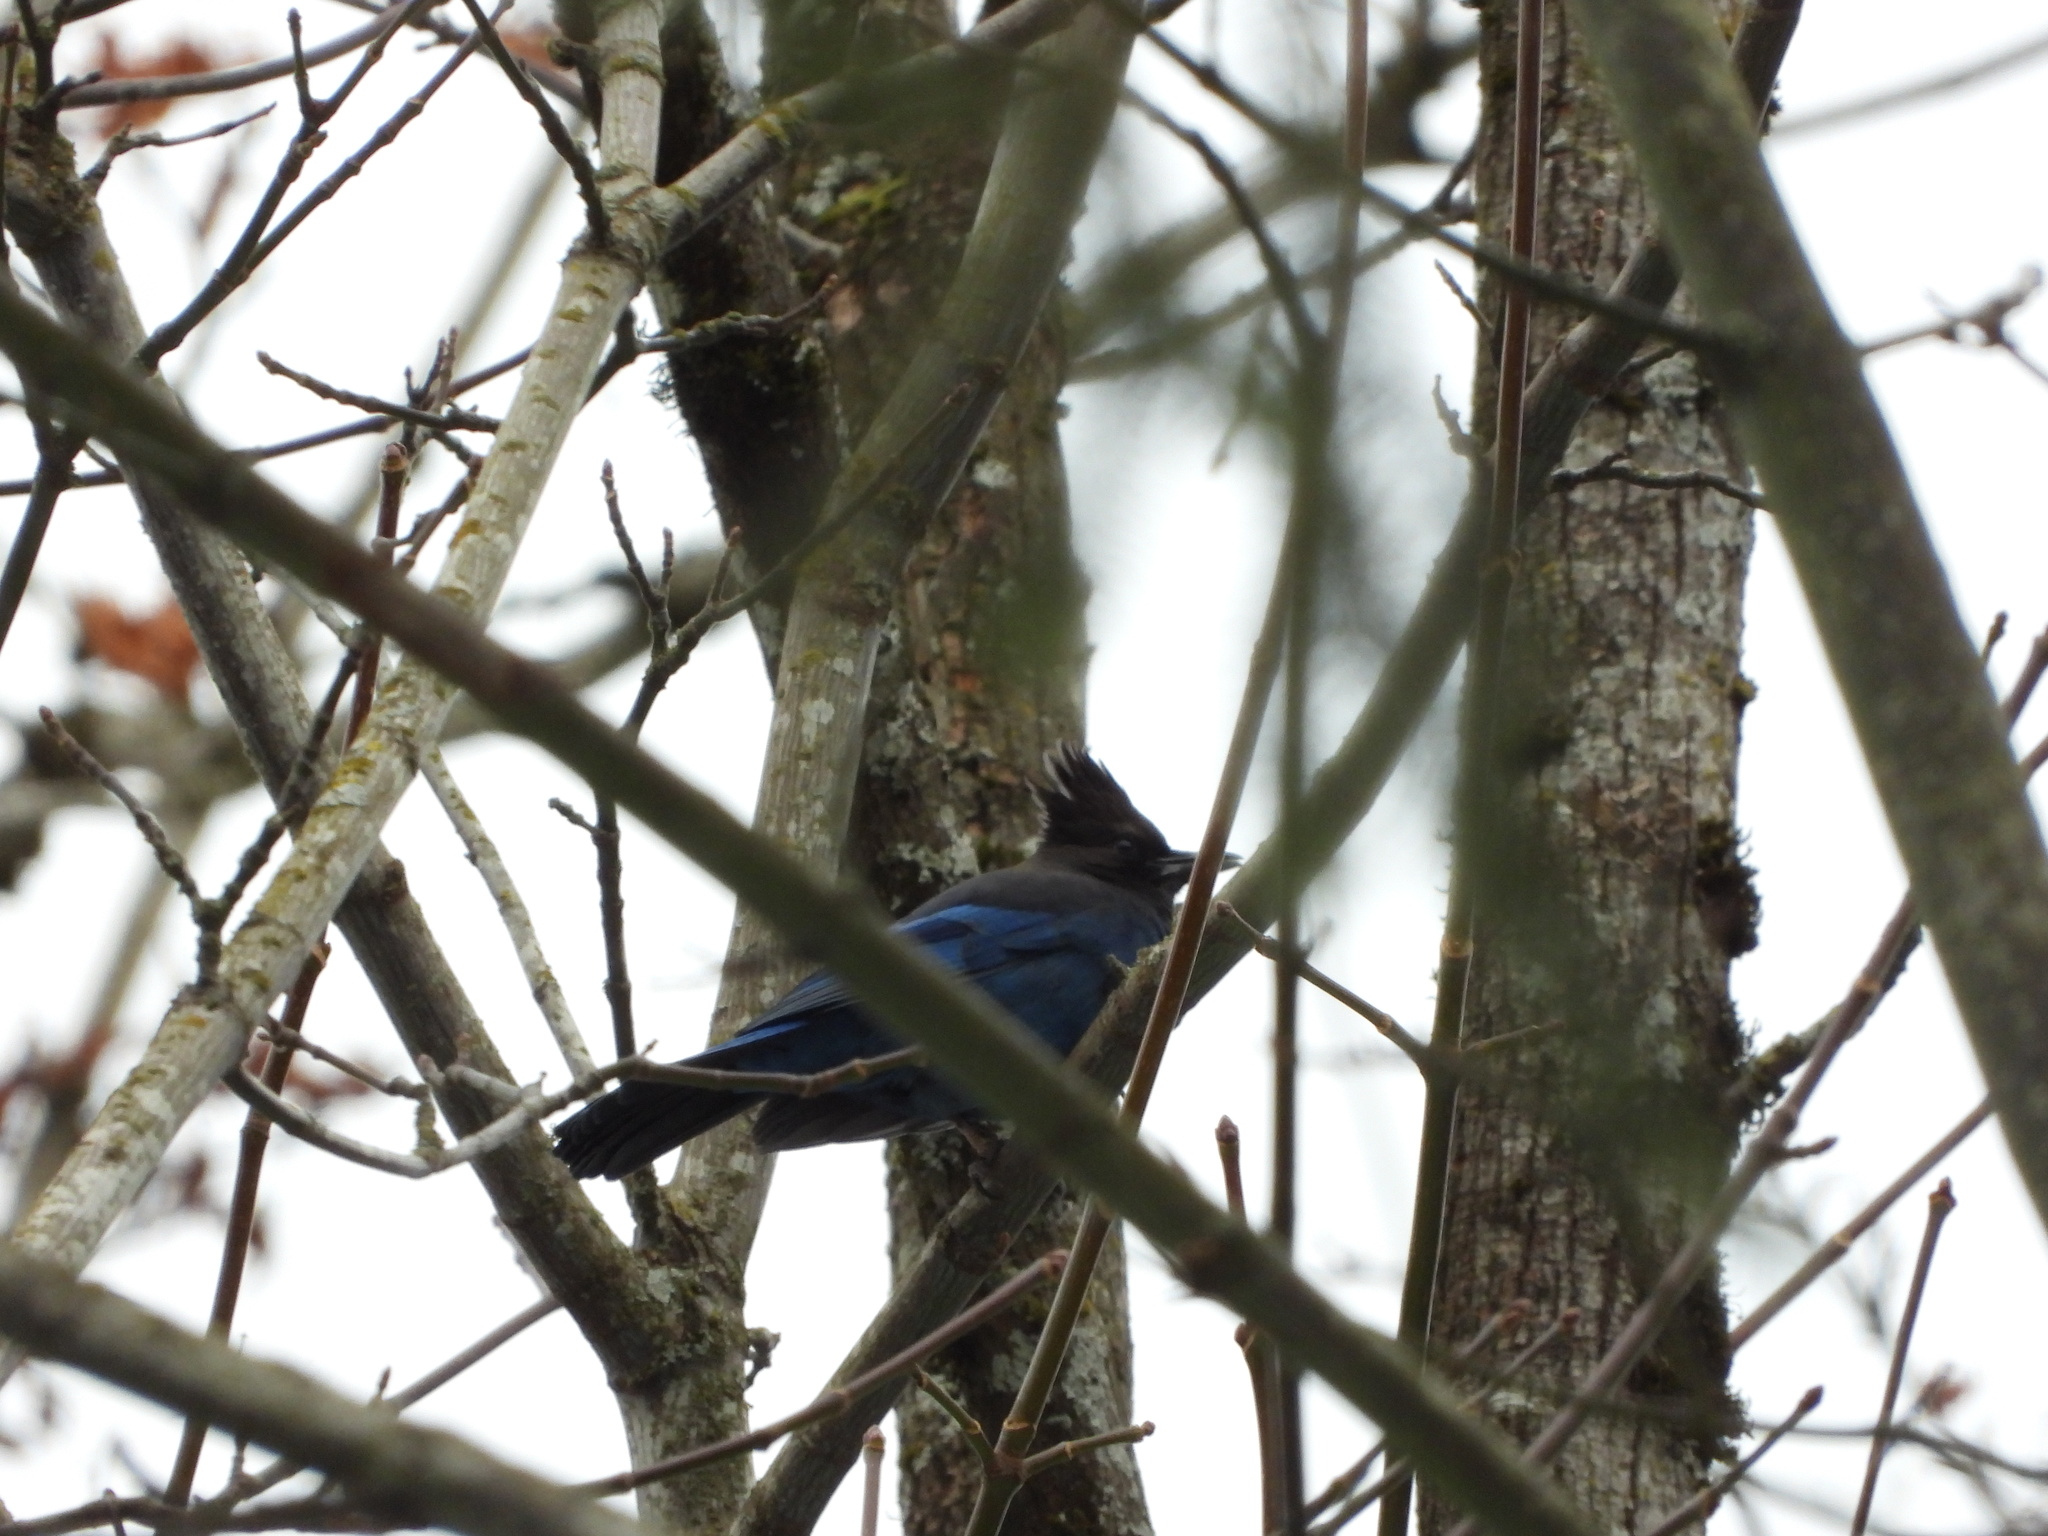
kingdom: Animalia
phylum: Chordata
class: Aves
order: Passeriformes
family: Corvidae
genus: Cyanocitta
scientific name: Cyanocitta stelleri
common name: Steller's jay
